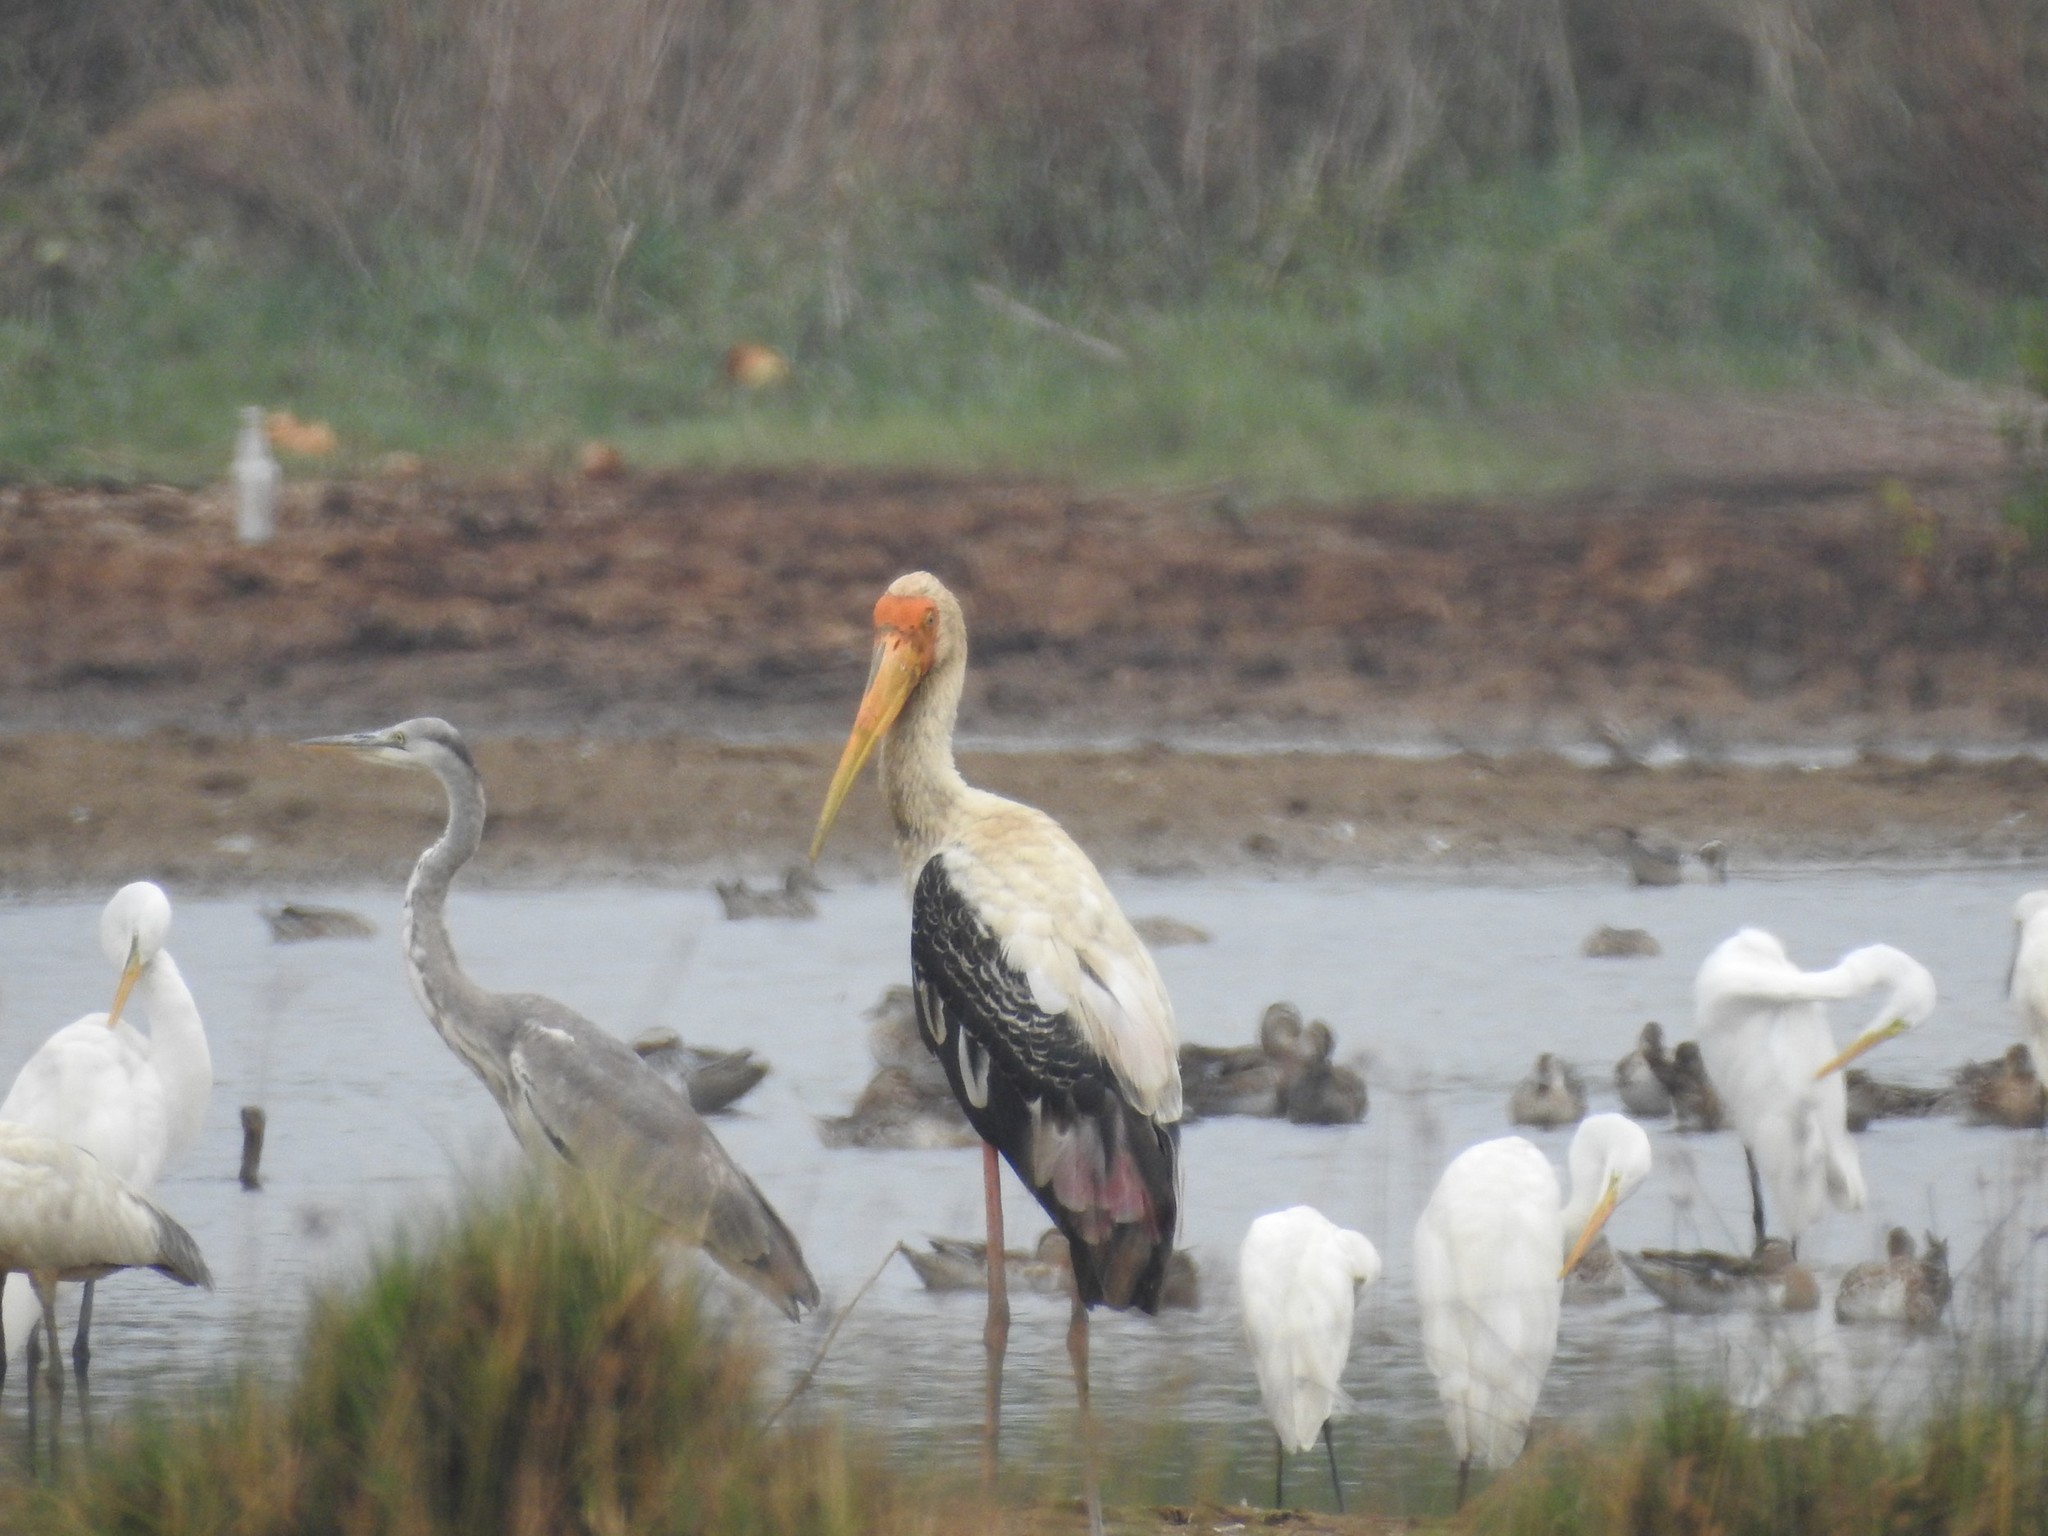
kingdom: Animalia
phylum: Chordata
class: Aves
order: Ciconiiformes
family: Ciconiidae
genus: Mycteria
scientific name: Mycteria leucocephala
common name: Painted stork
